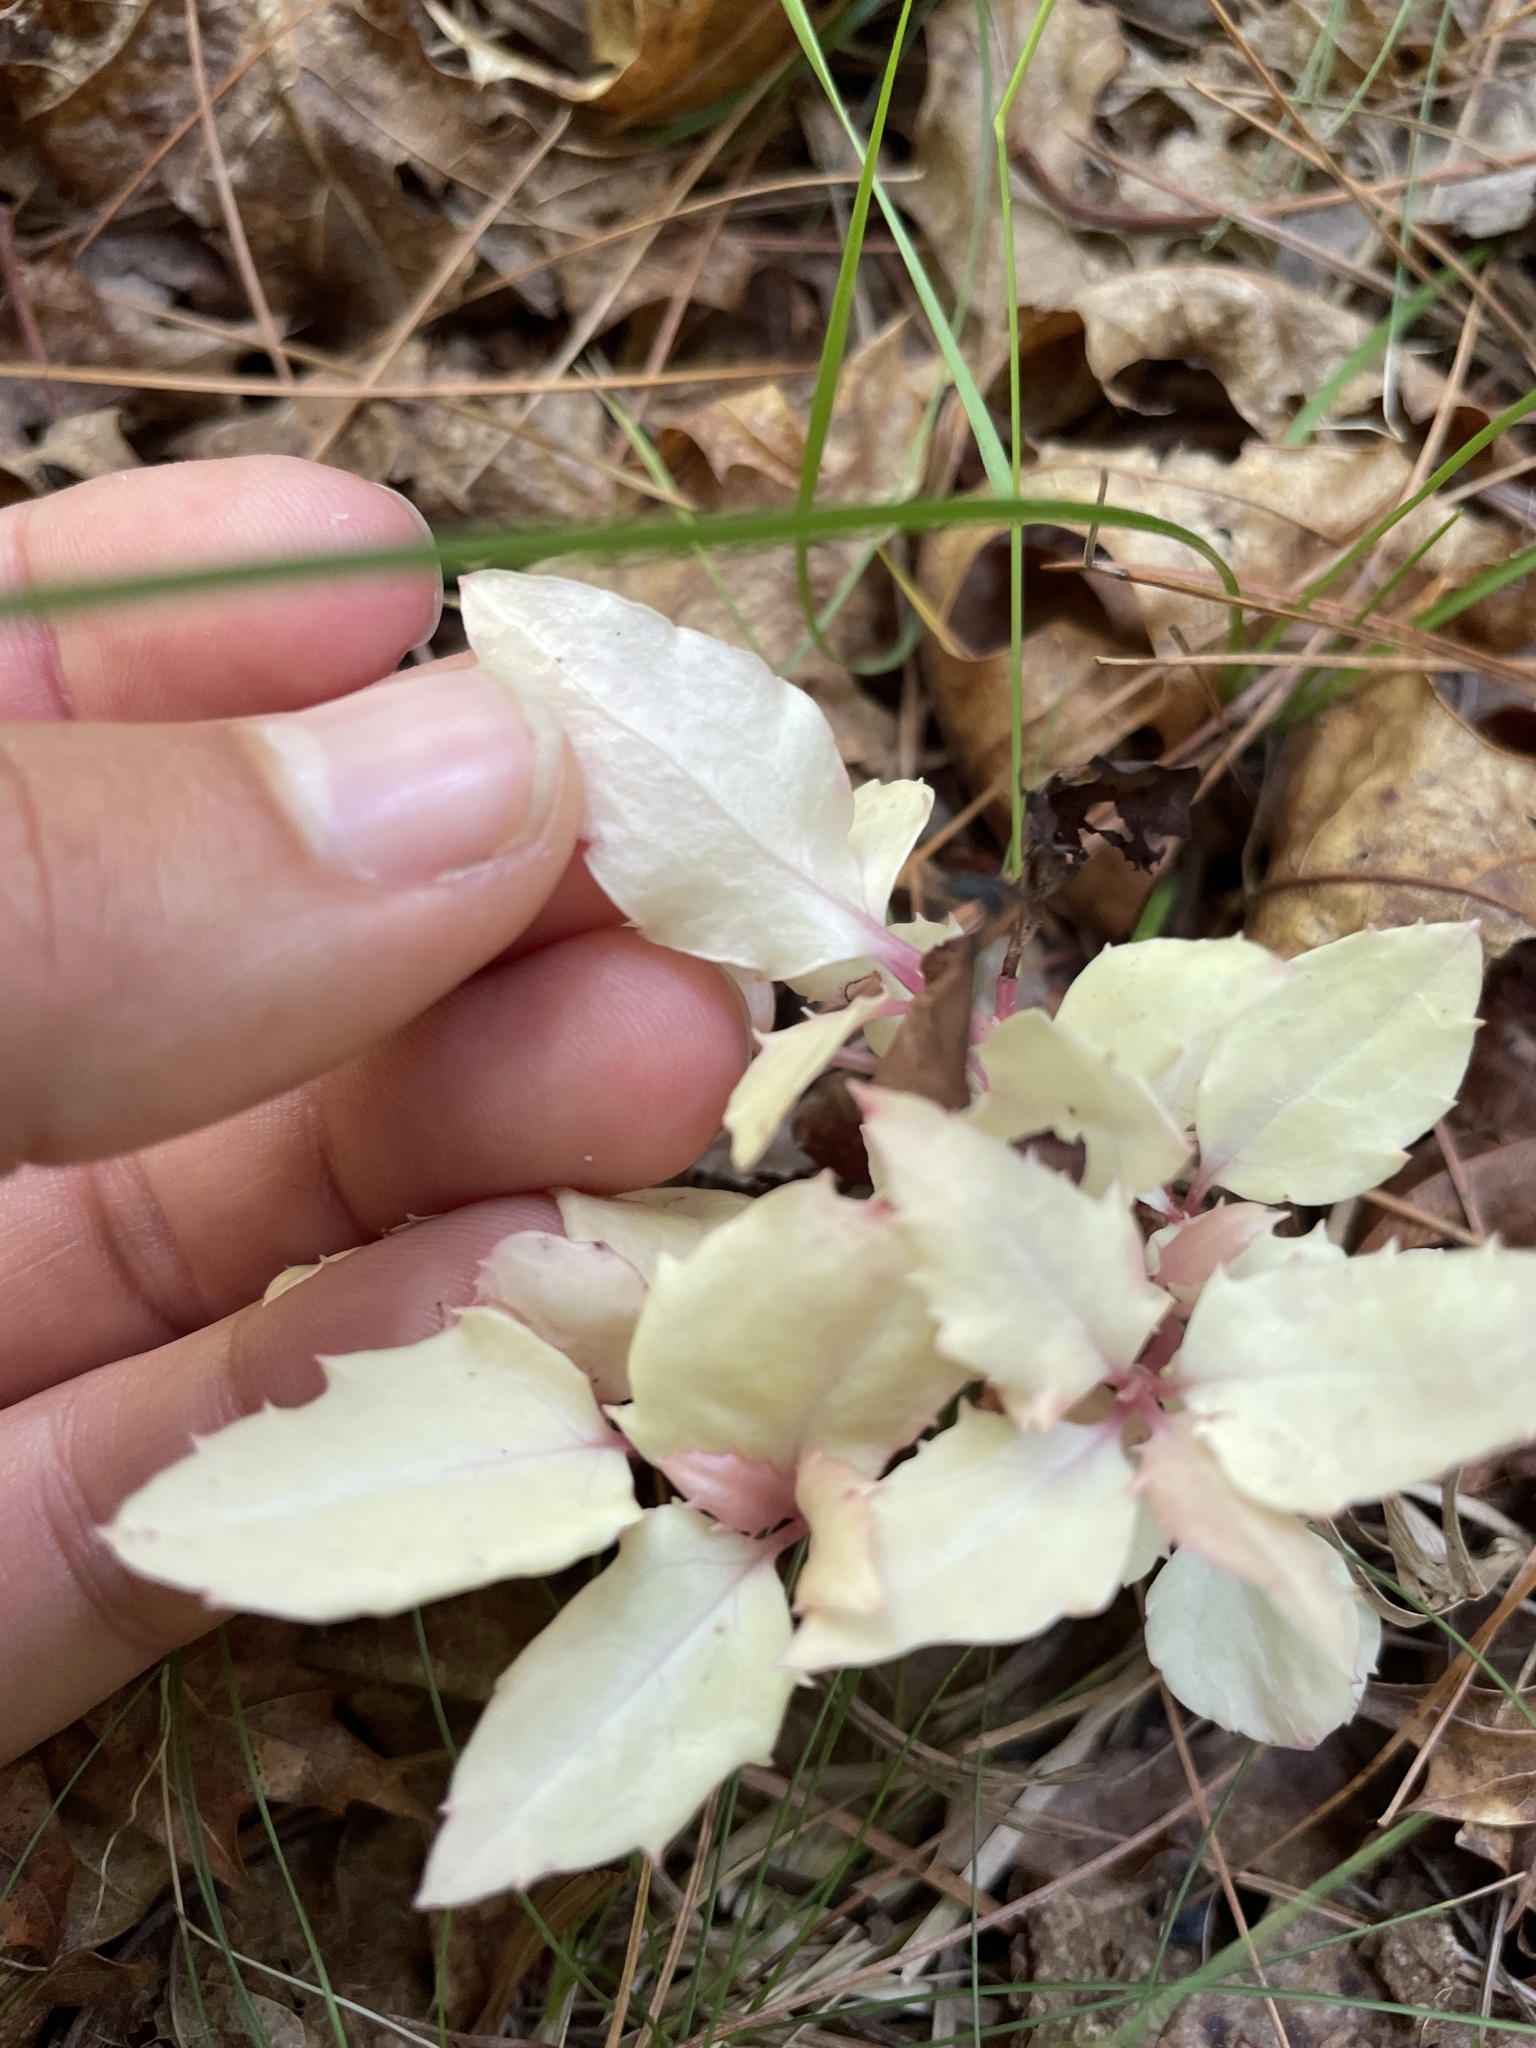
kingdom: Plantae
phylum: Tracheophyta
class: Magnoliopsida
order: Ericales
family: Ericaceae
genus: Chimaphila
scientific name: Chimaphila maculata
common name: Spotted pipsissewa
